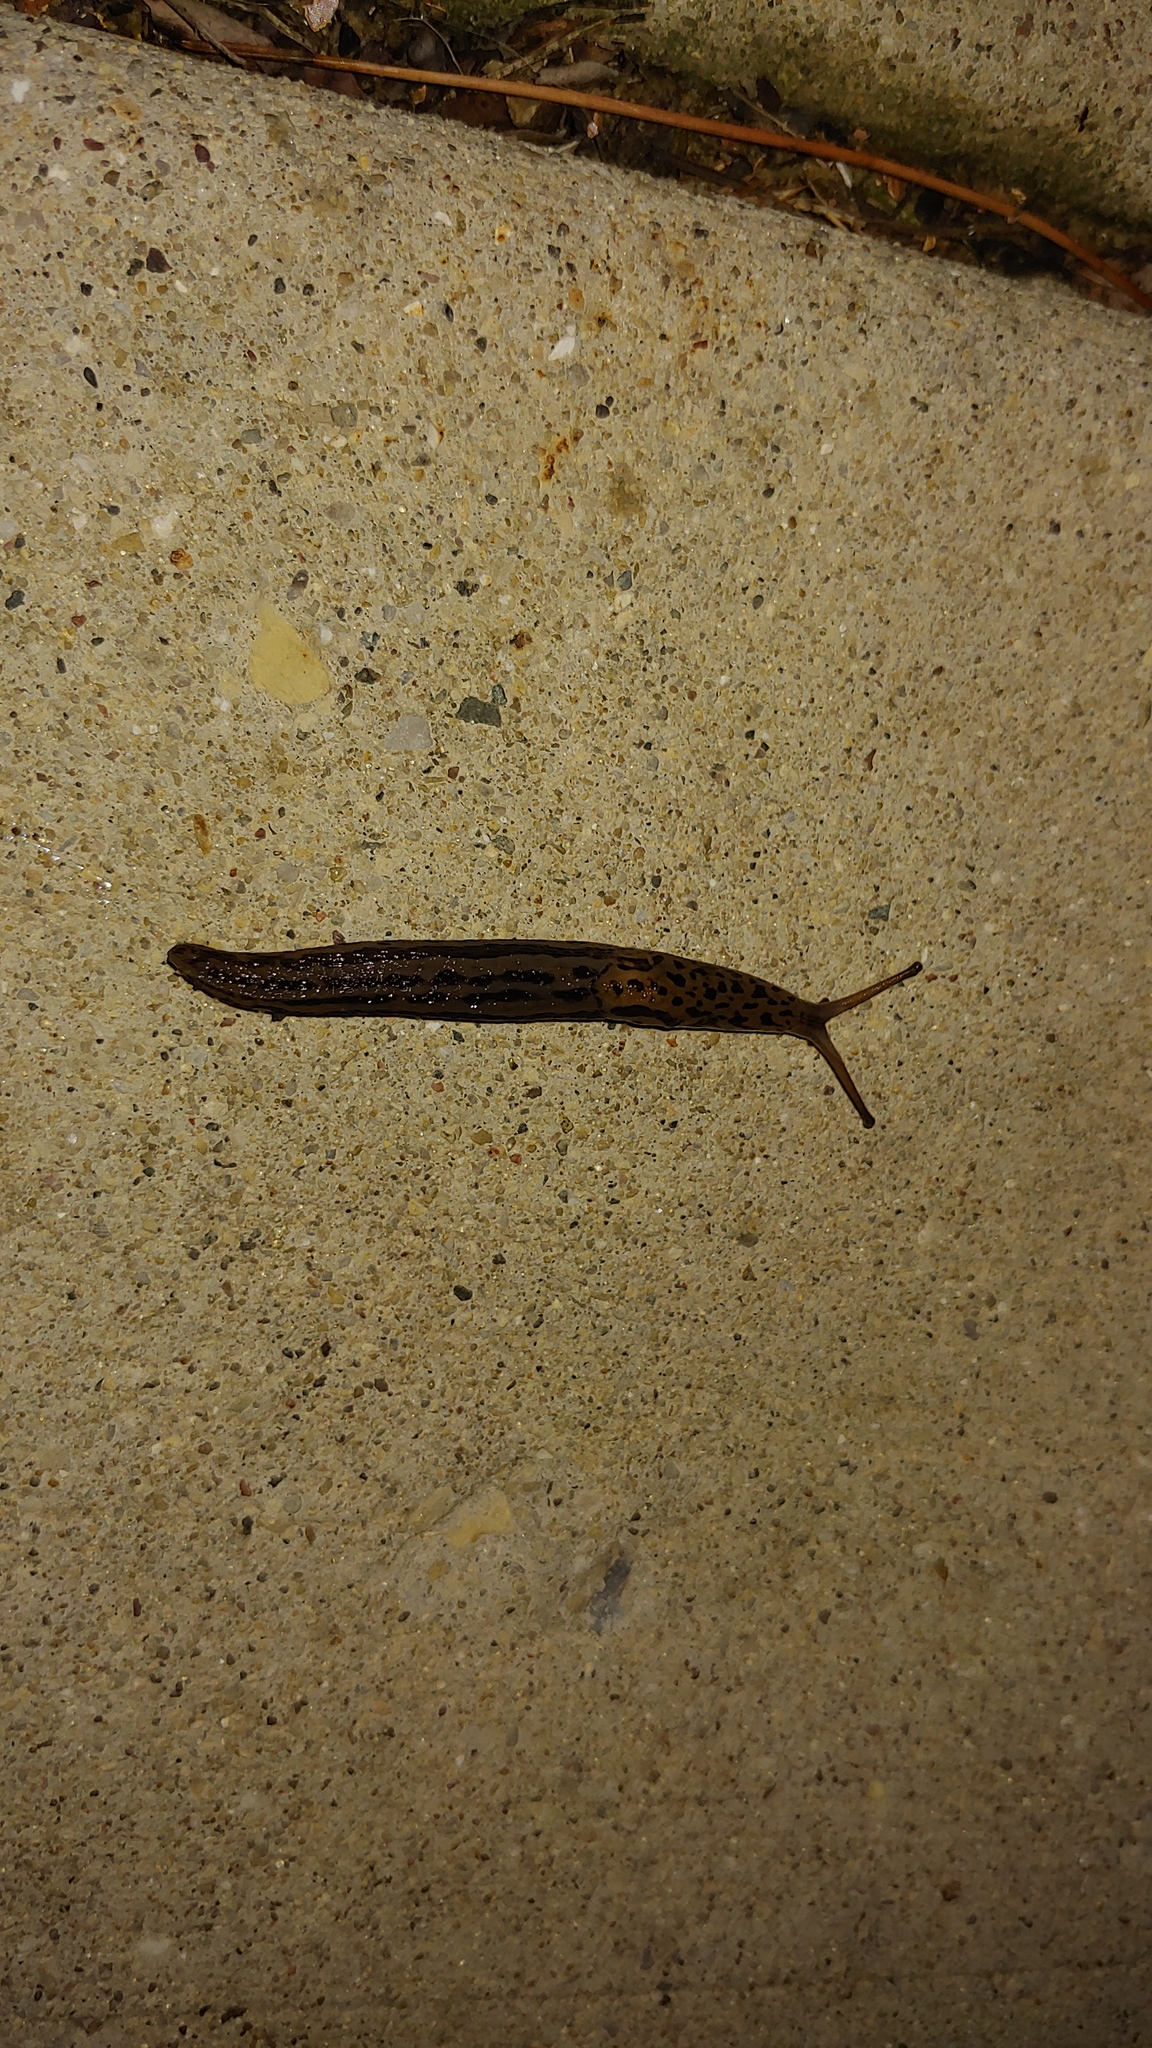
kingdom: Animalia
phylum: Mollusca
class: Gastropoda
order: Stylommatophora
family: Limacidae
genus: Limax
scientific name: Limax maximus
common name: Great grey slug
